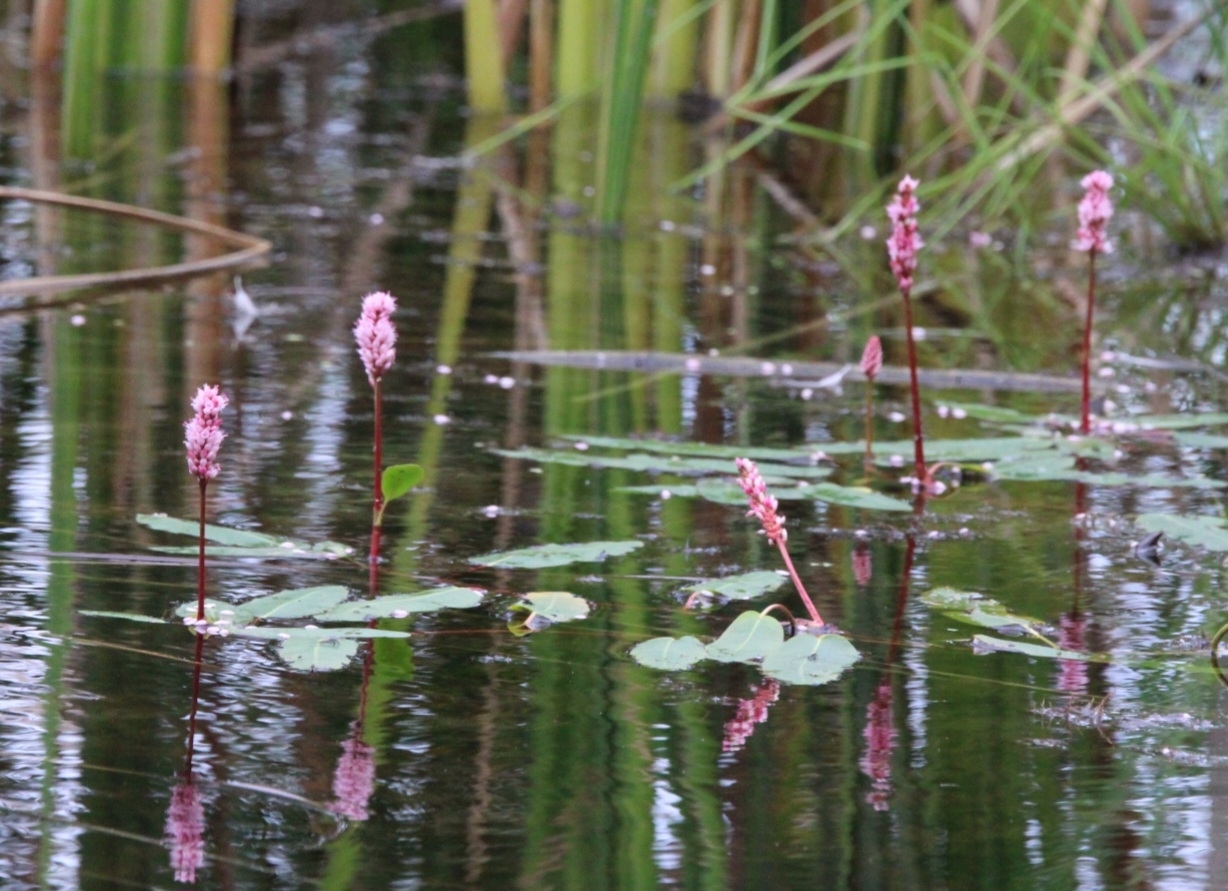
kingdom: Plantae
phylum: Tracheophyta
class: Magnoliopsida
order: Caryophyllales
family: Polygonaceae
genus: Persicaria
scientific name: Persicaria amphibia
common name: Amphibious bistort
